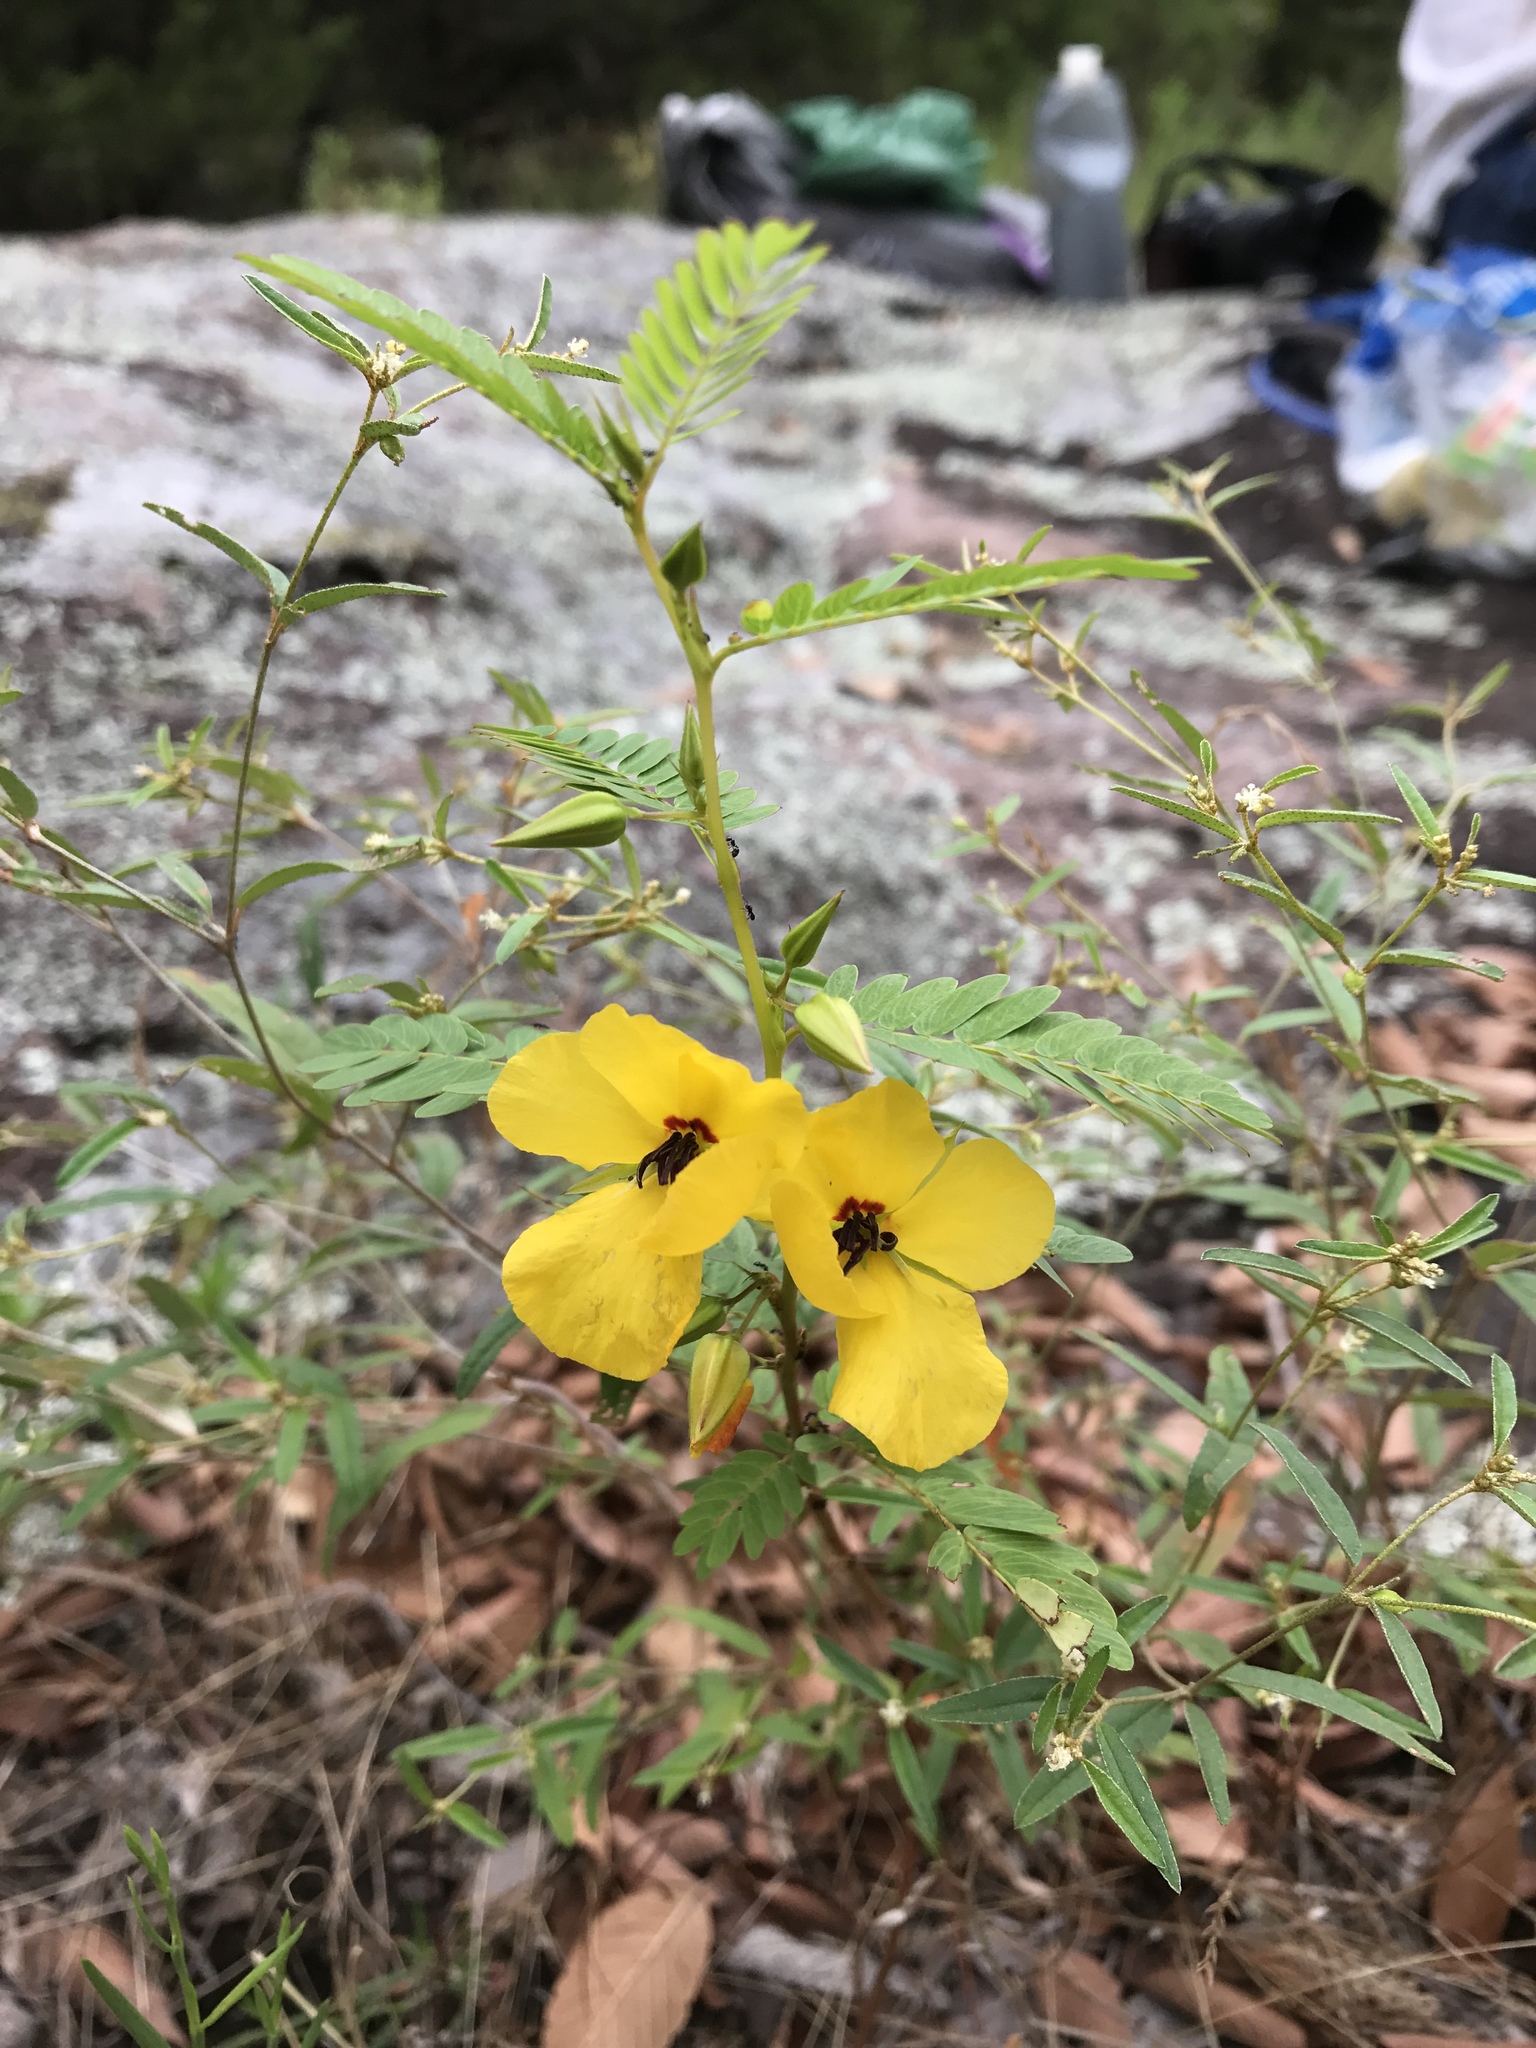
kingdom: Plantae
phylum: Tracheophyta
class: Magnoliopsida
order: Fabales
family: Fabaceae
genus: Chamaecrista
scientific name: Chamaecrista fasciculata
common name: Golden cassia
